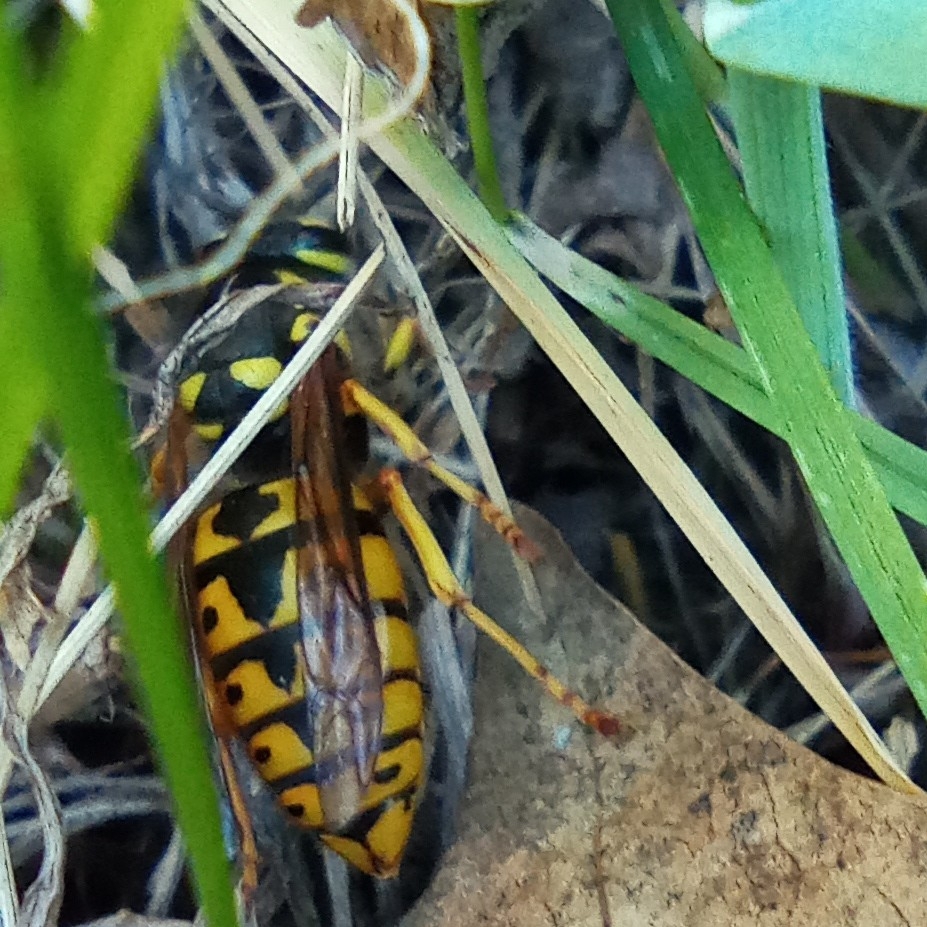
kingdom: Animalia
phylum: Arthropoda
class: Insecta
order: Hymenoptera
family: Vespidae
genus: Vespula
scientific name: Vespula germanica
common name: German wasp
